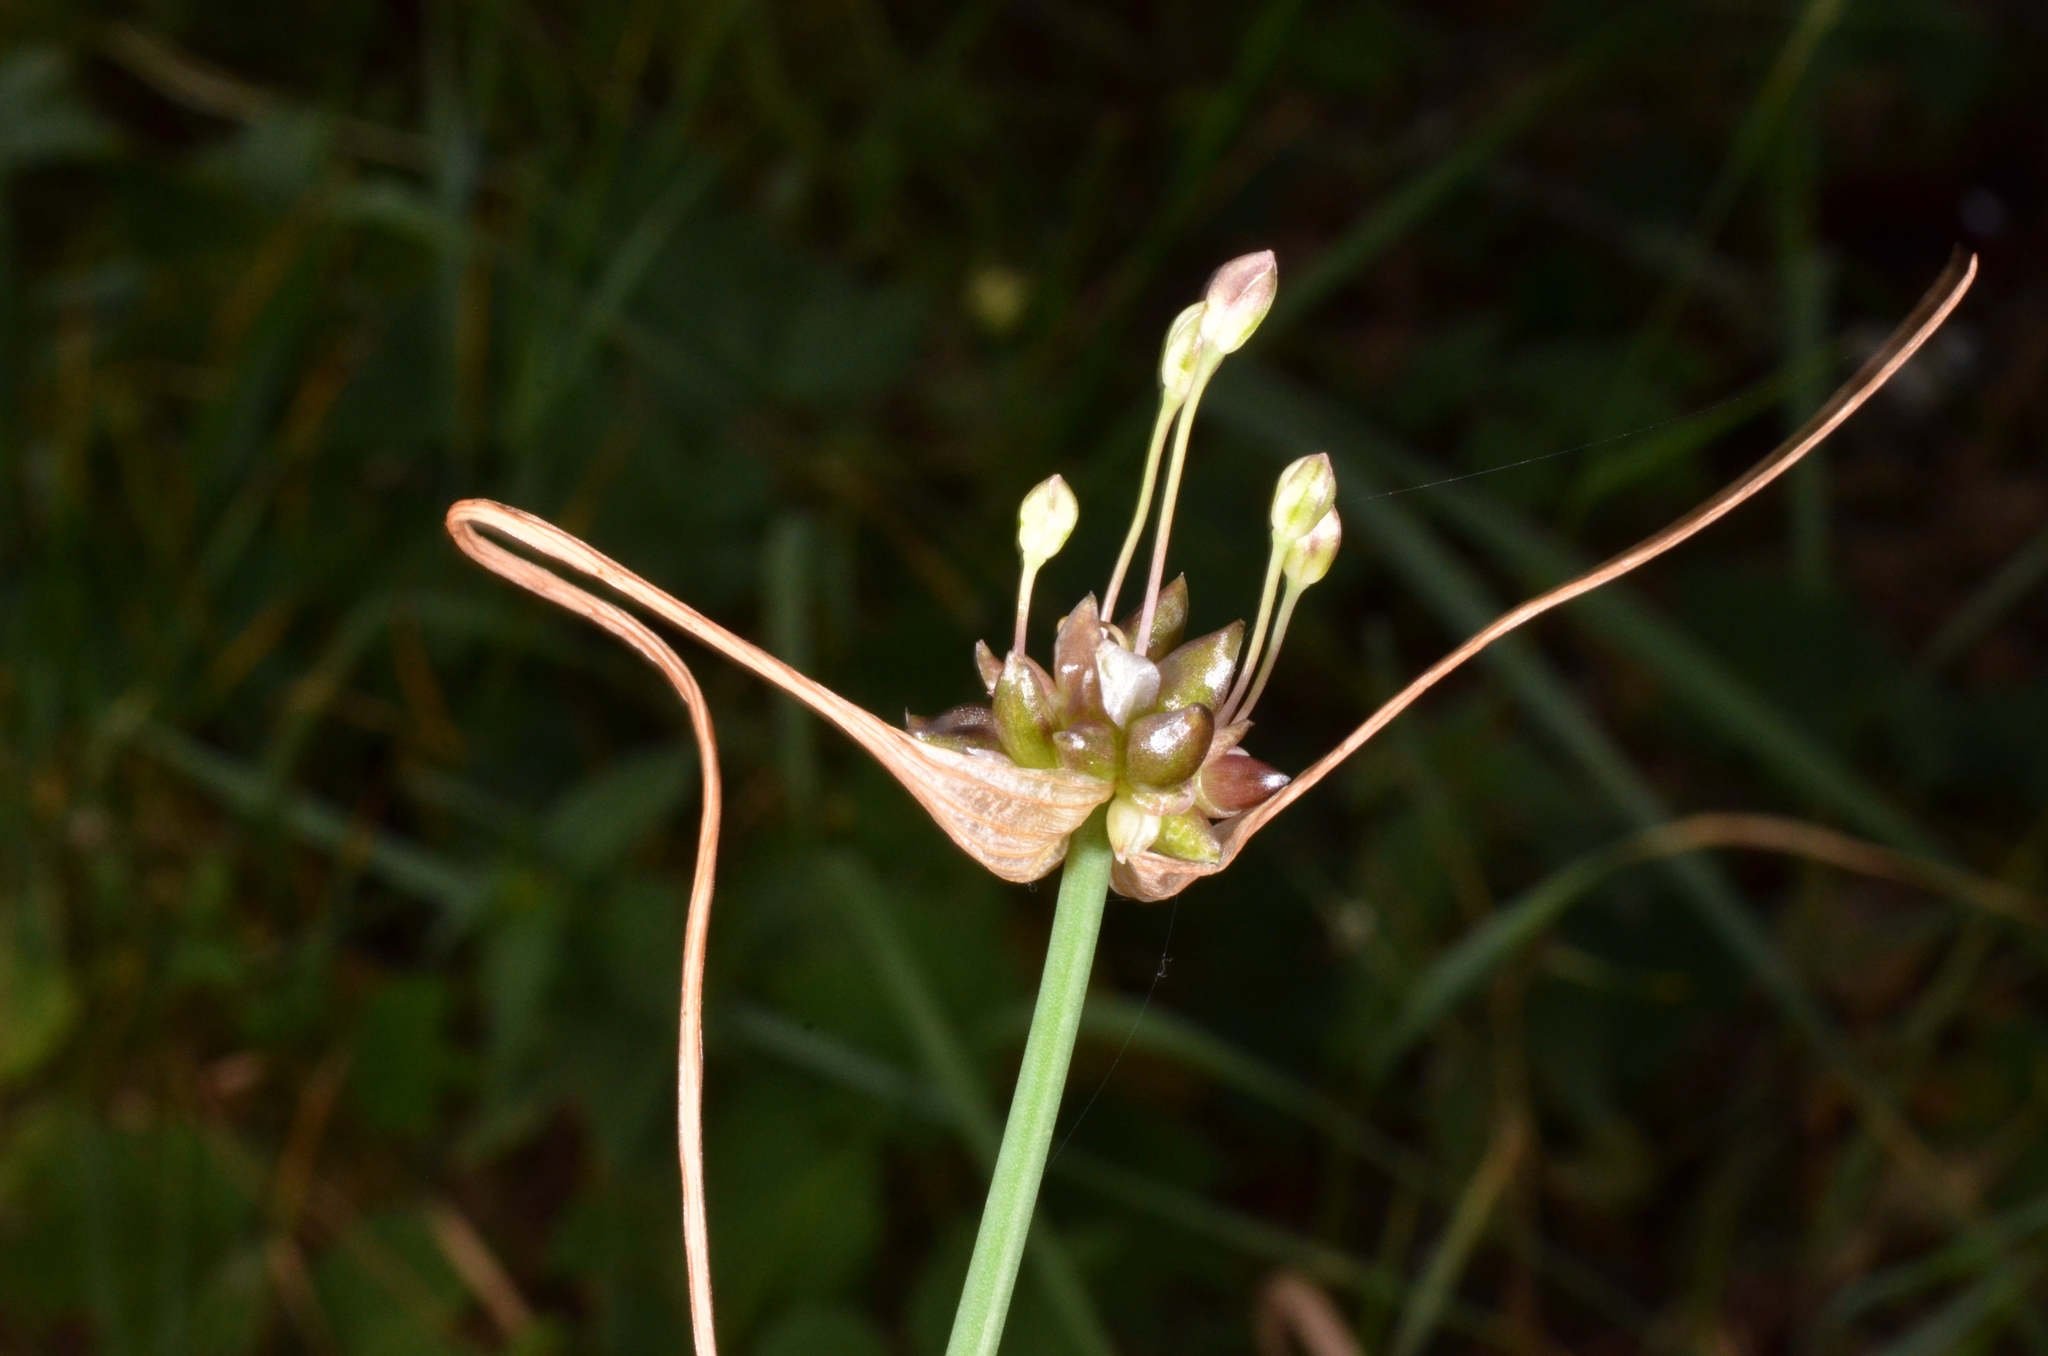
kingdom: Plantae
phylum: Tracheophyta
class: Liliopsida
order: Asparagales
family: Amaryllidaceae
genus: Allium
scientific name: Allium oleraceum
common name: Field garlic
